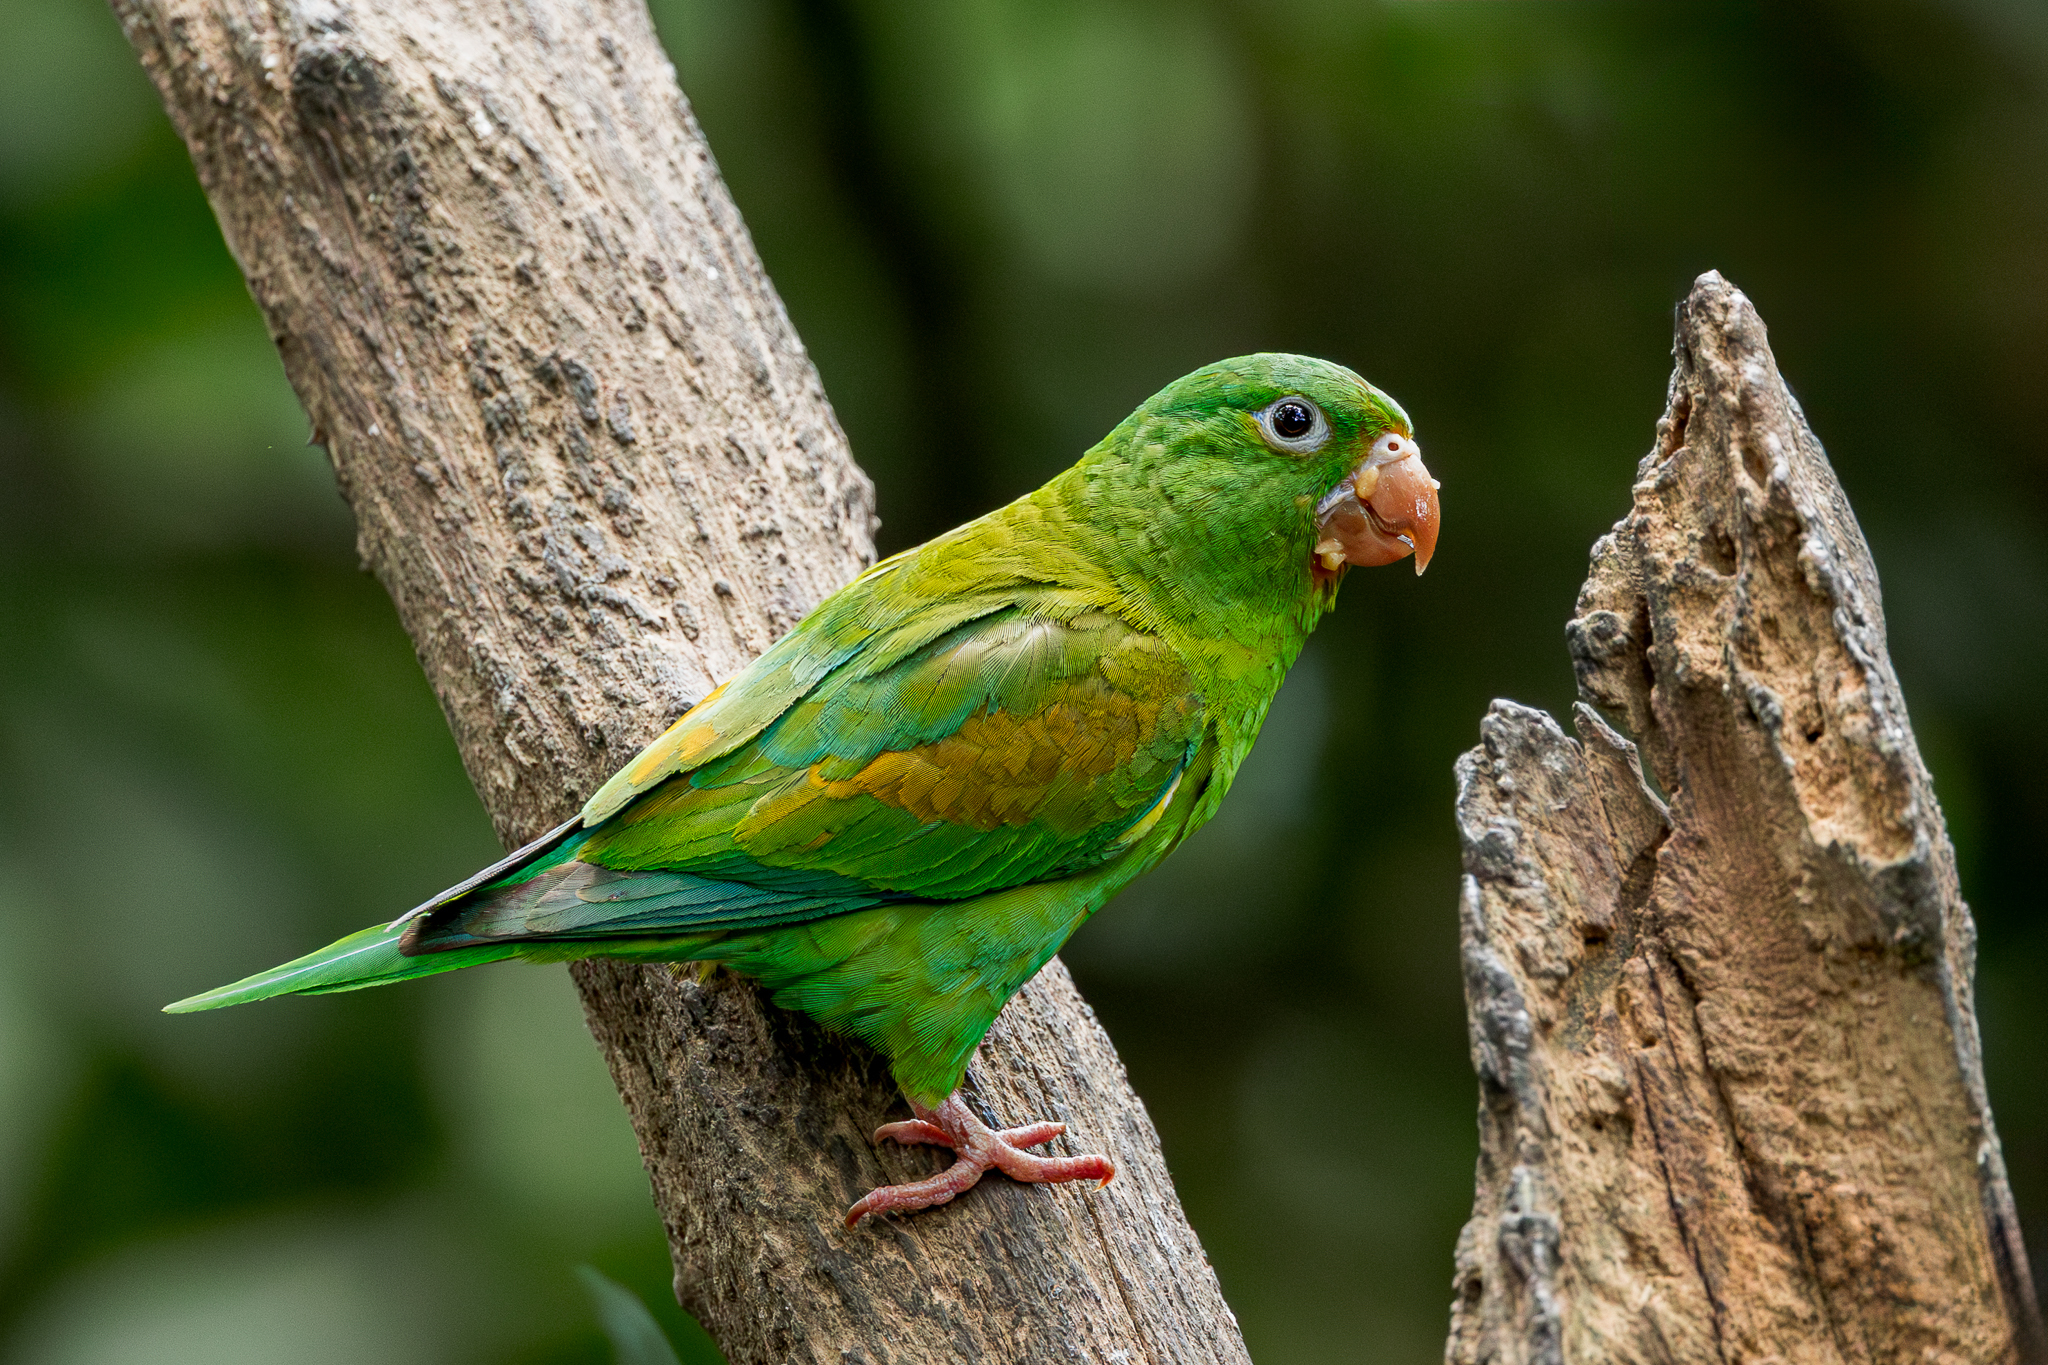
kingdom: Animalia
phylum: Chordata
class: Aves
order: Psittaciformes
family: Psittacidae
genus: Brotogeris
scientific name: Brotogeris jugularis
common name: Orange-chinned parakeet
